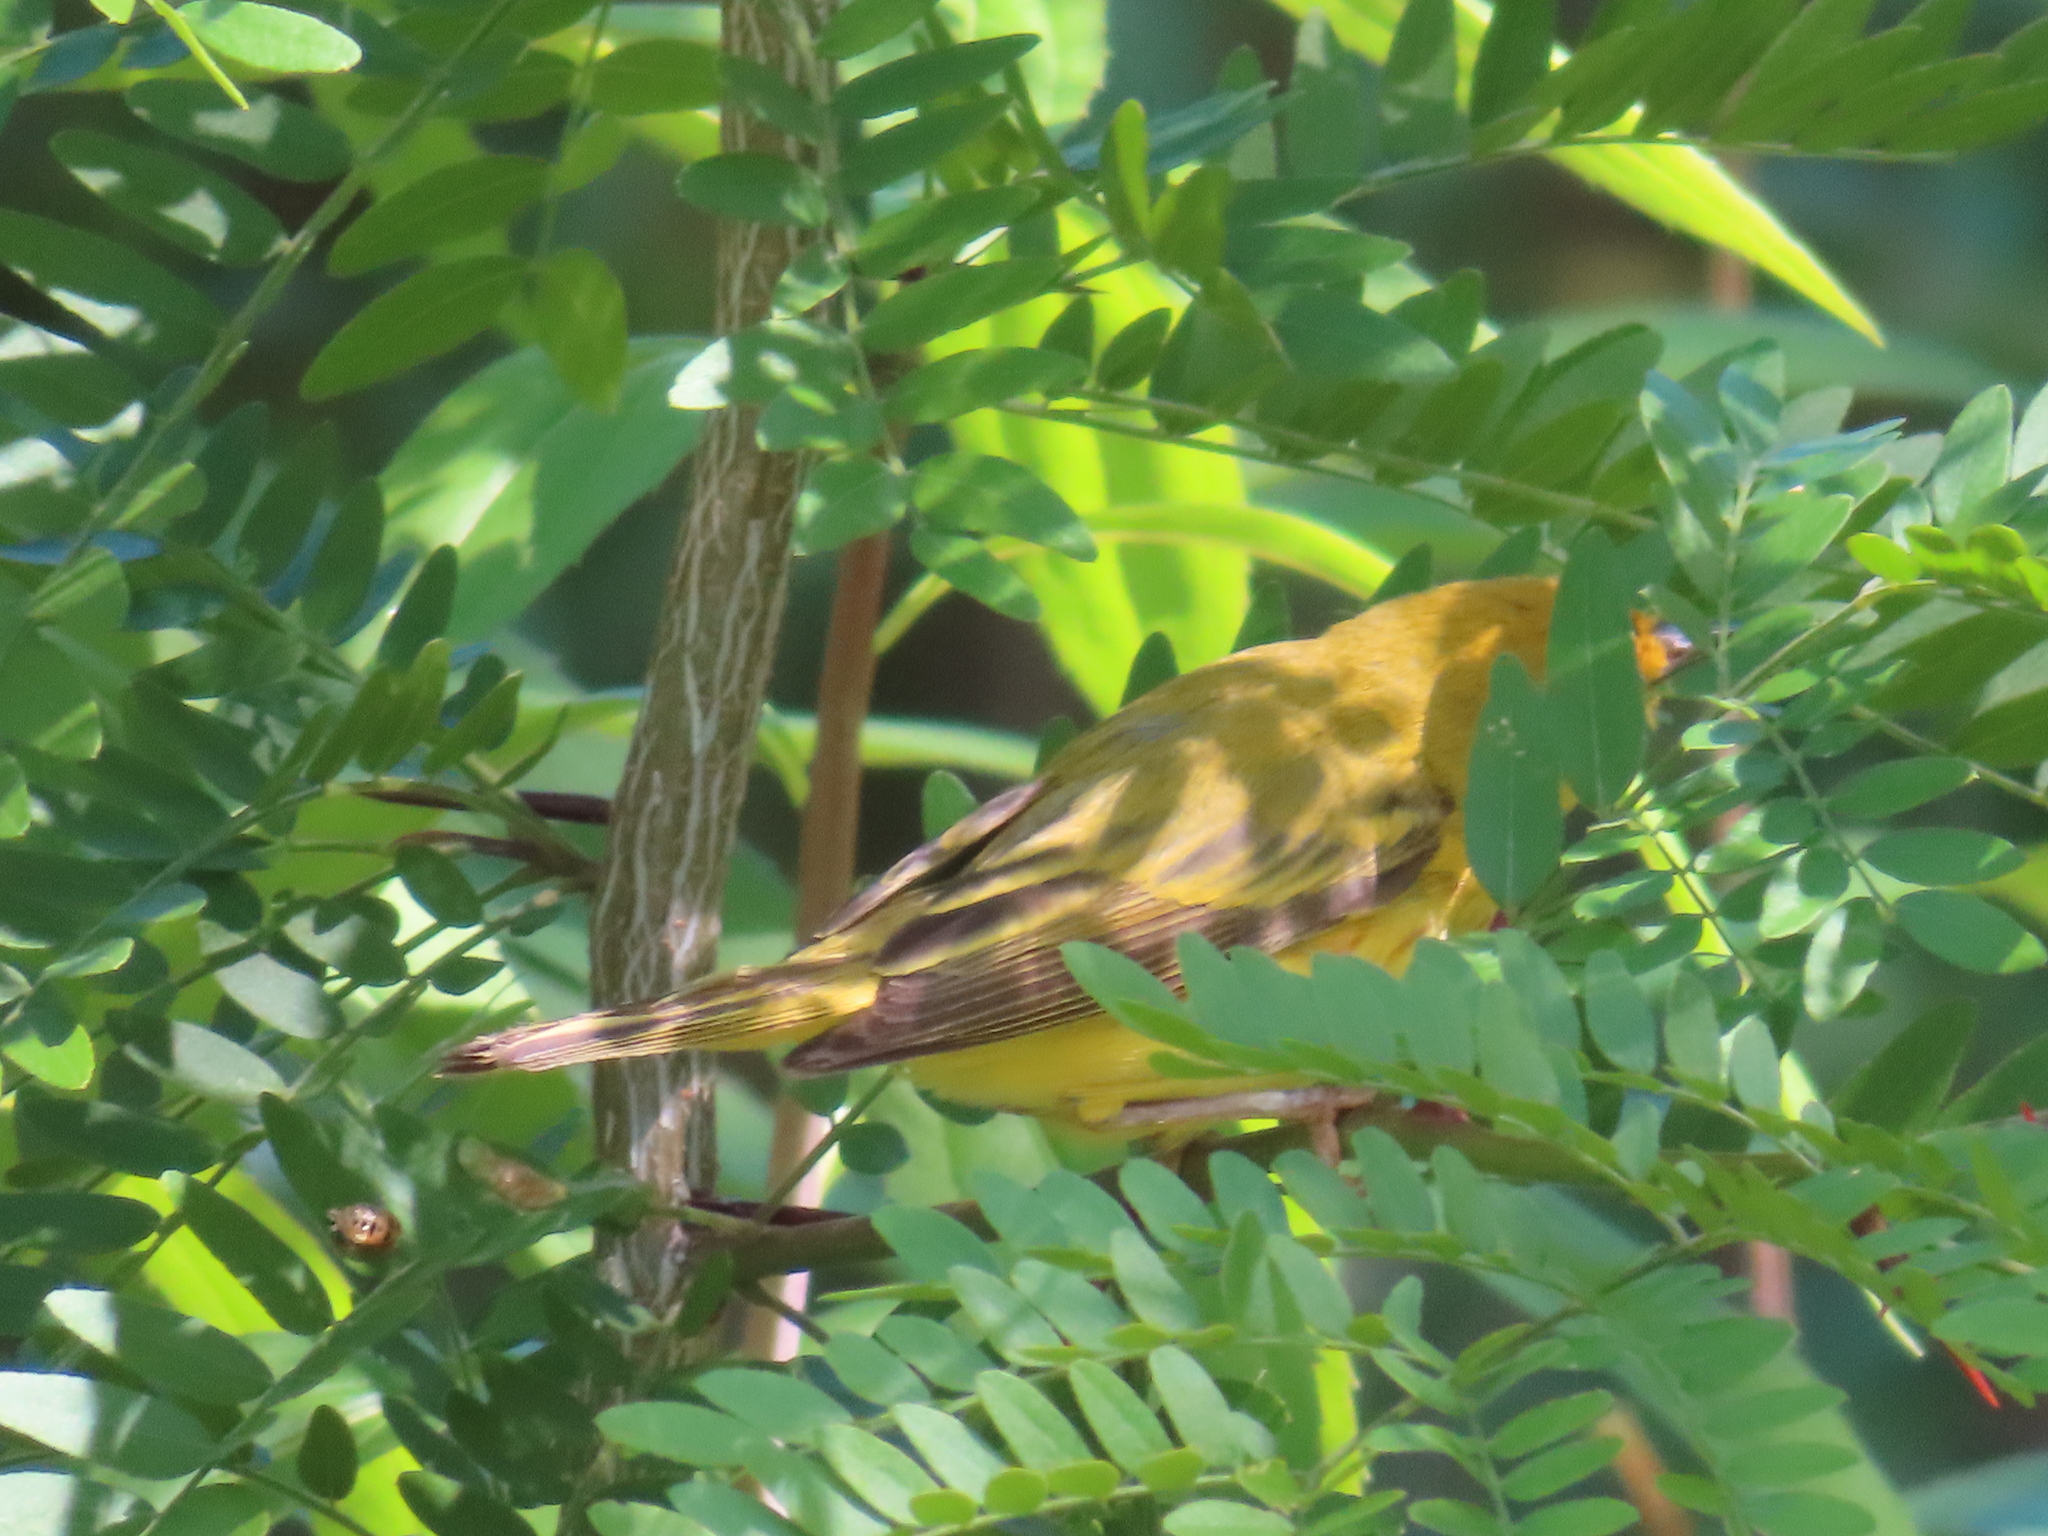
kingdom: Animalia
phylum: Chordata
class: Aves
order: Passeriformes
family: Parulidae
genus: Setophaga
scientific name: Setophaga petechia
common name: Yellow warbler
